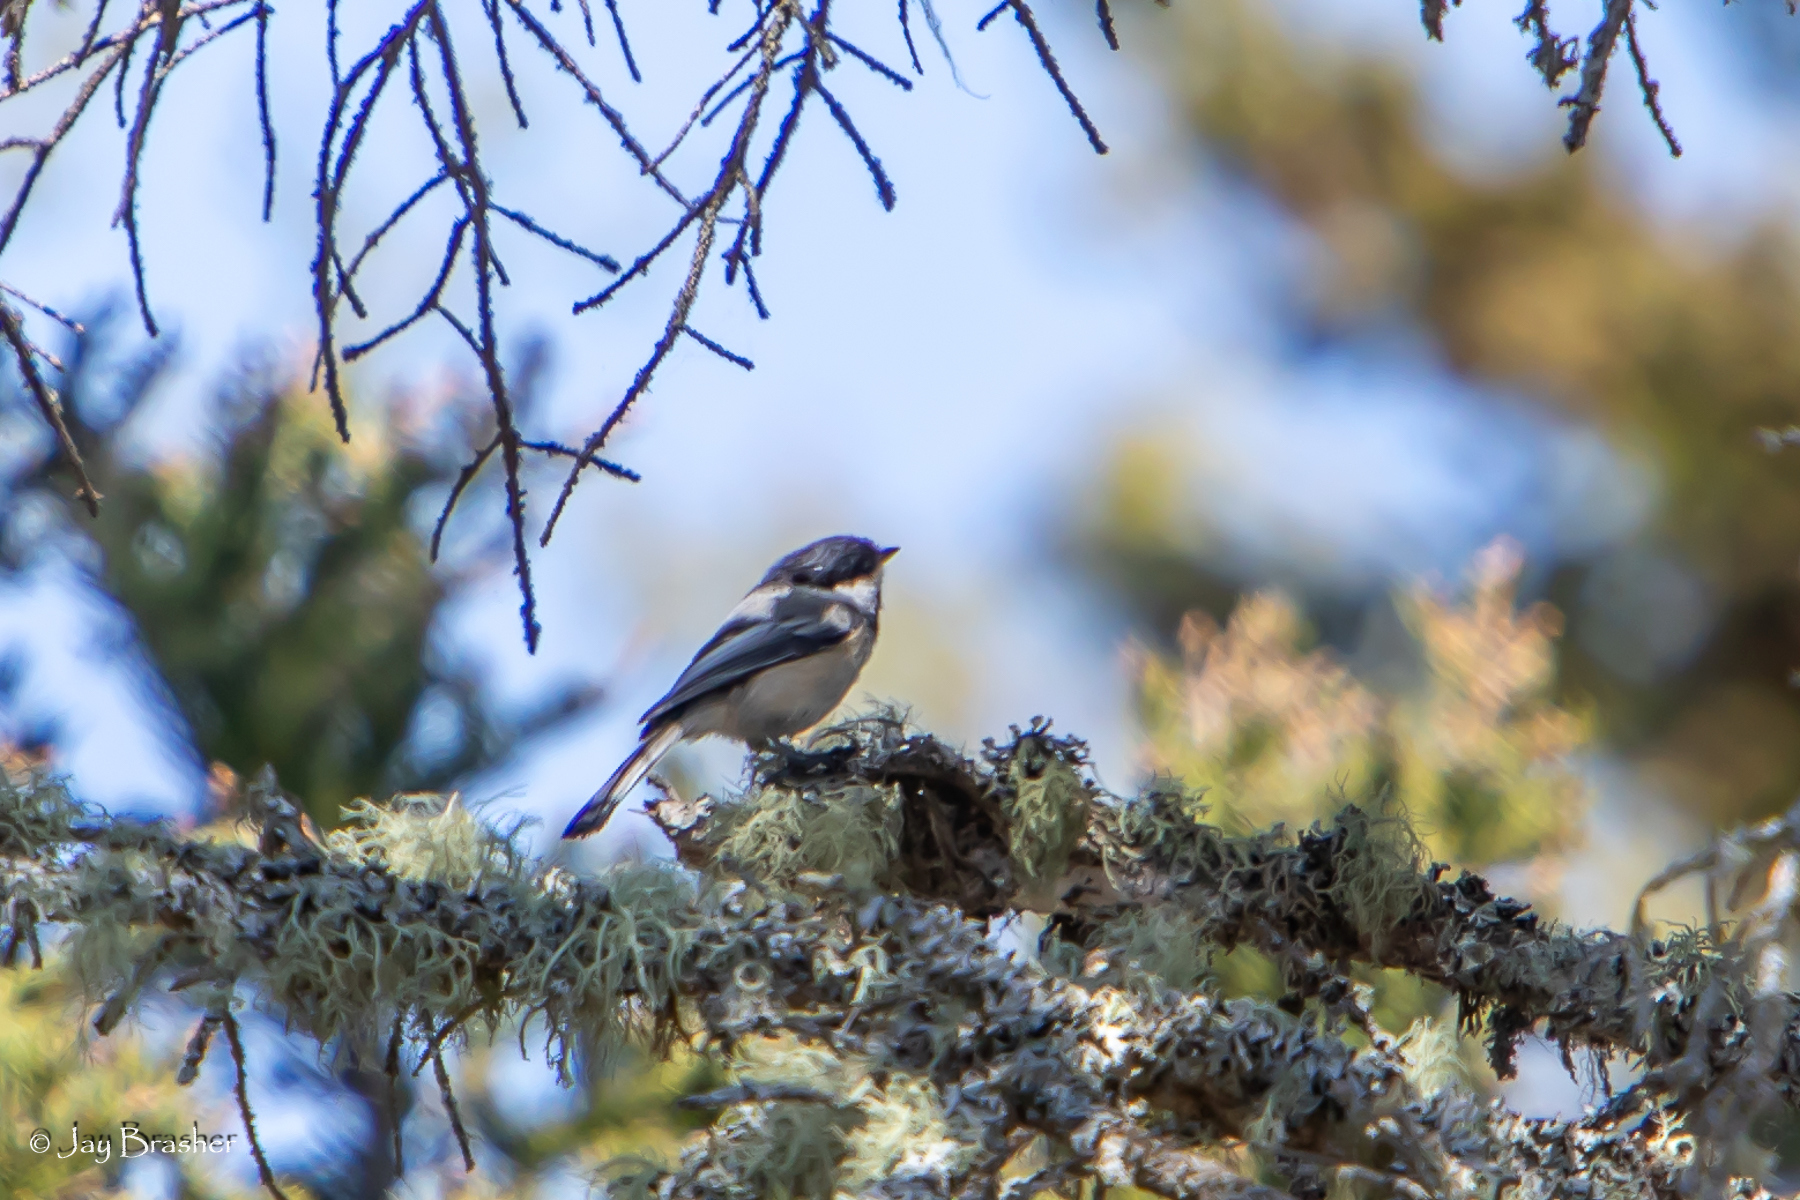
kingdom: Animalia
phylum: Chordata
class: Aves
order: Passeriformes
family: Paridae
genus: Poecile
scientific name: Poecile atricapillus
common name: Black-capped chickadee
